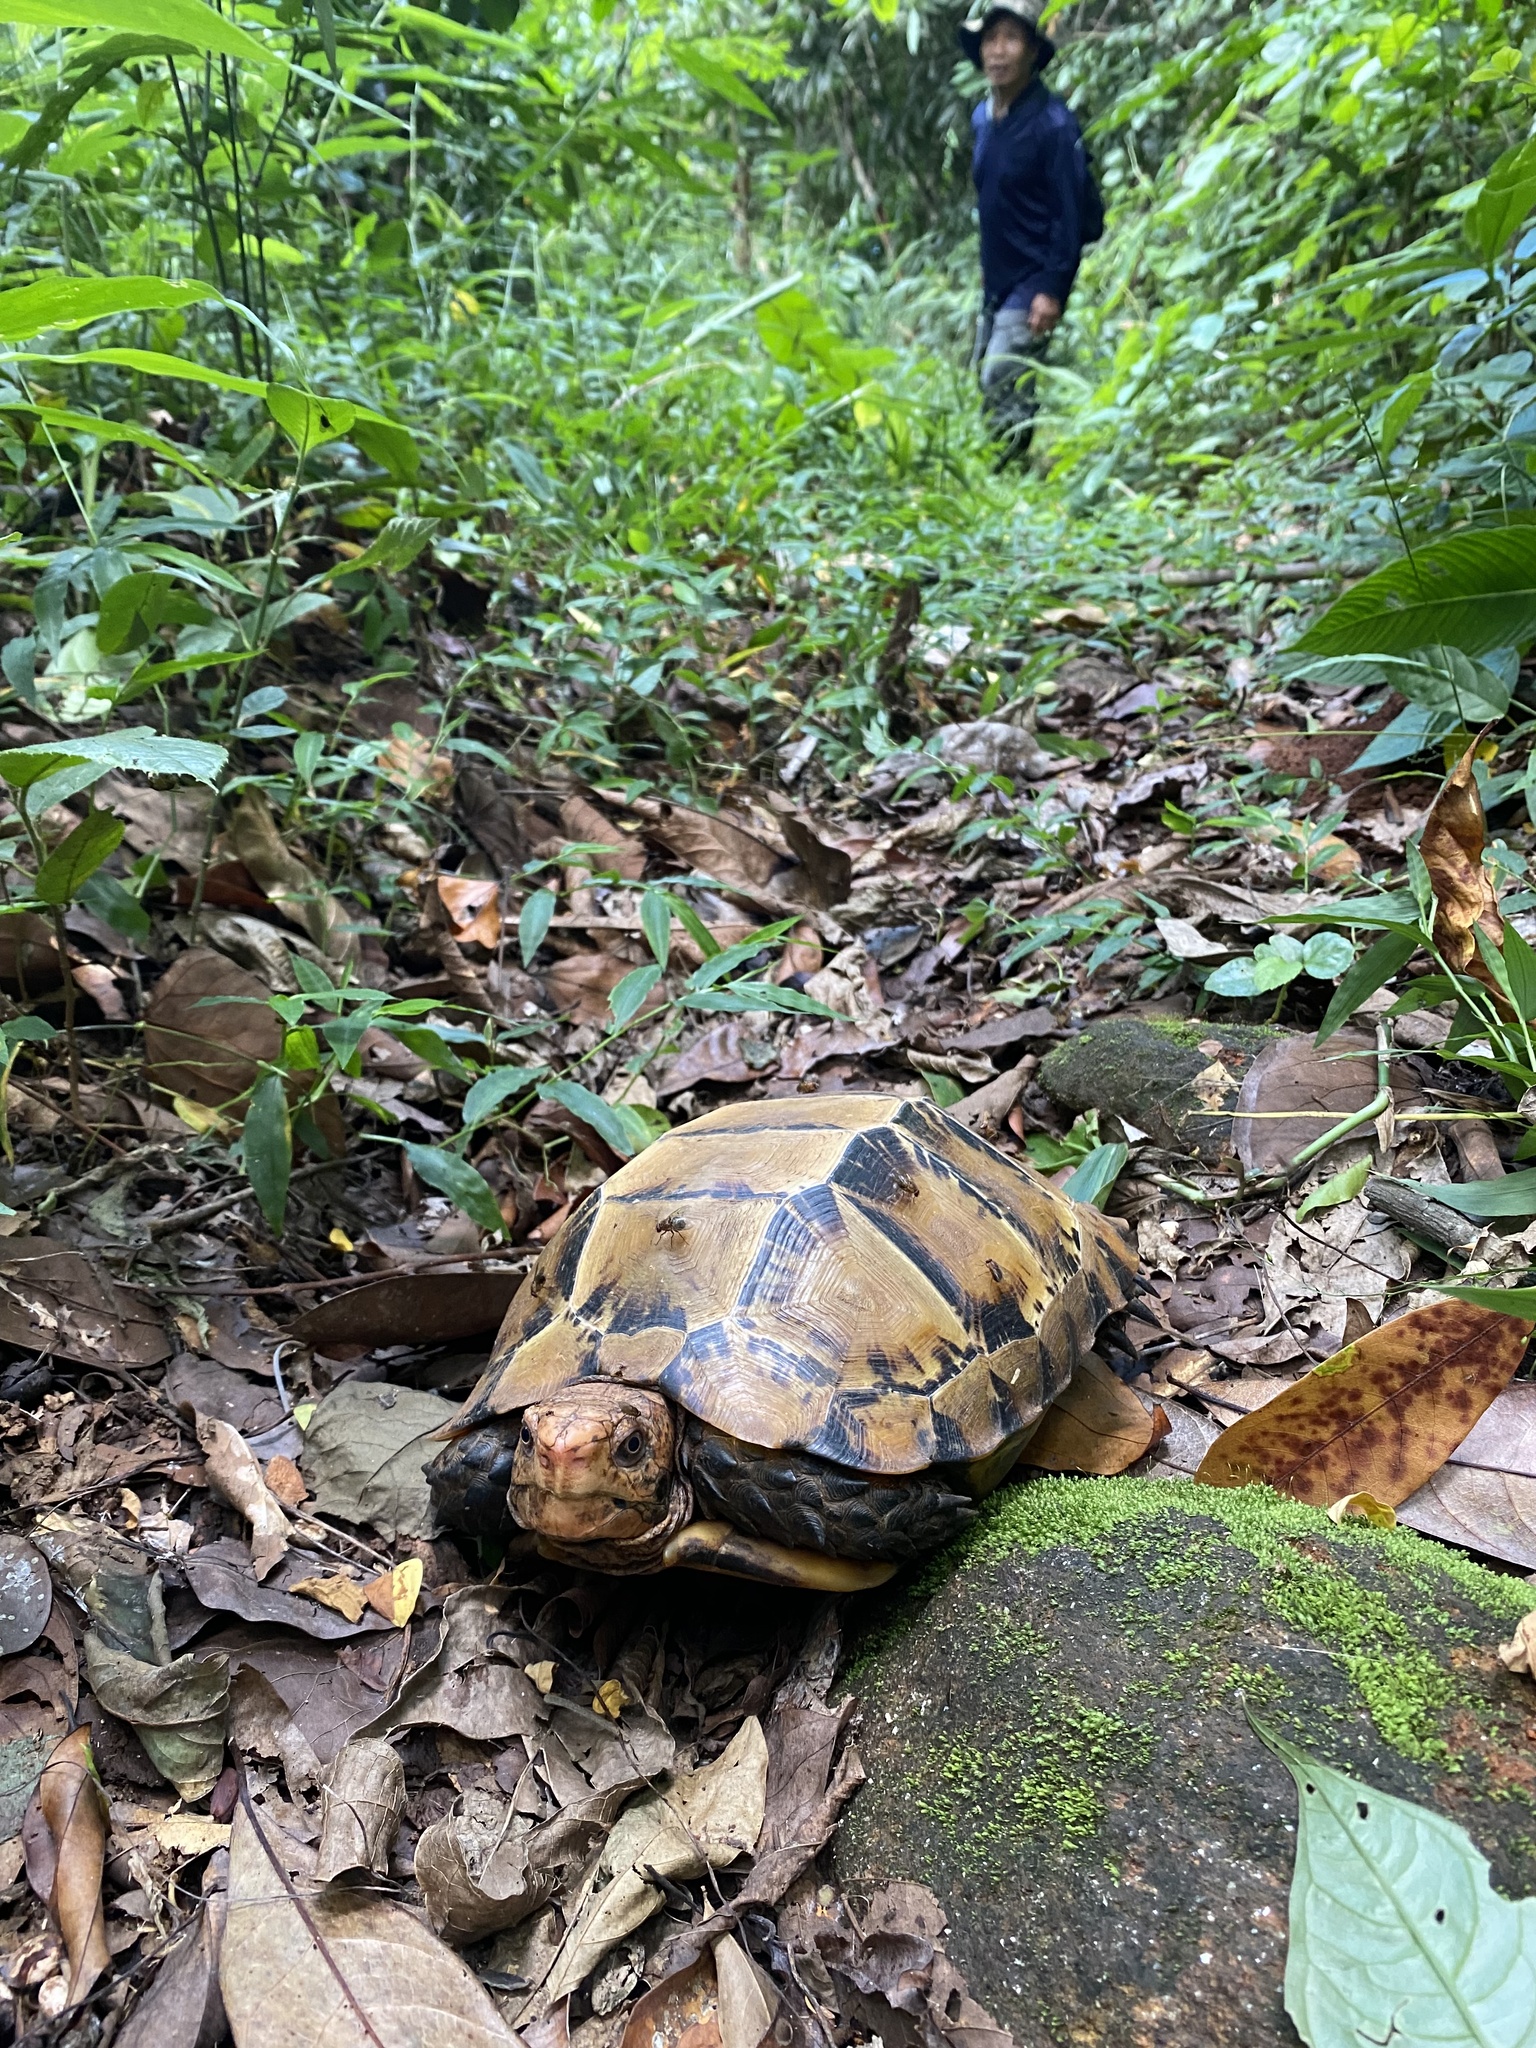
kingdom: Animalia
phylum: Chordata
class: Testudines
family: Testudinidae
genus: Manouria
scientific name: Manouria impressa
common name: Impressed tortoise
